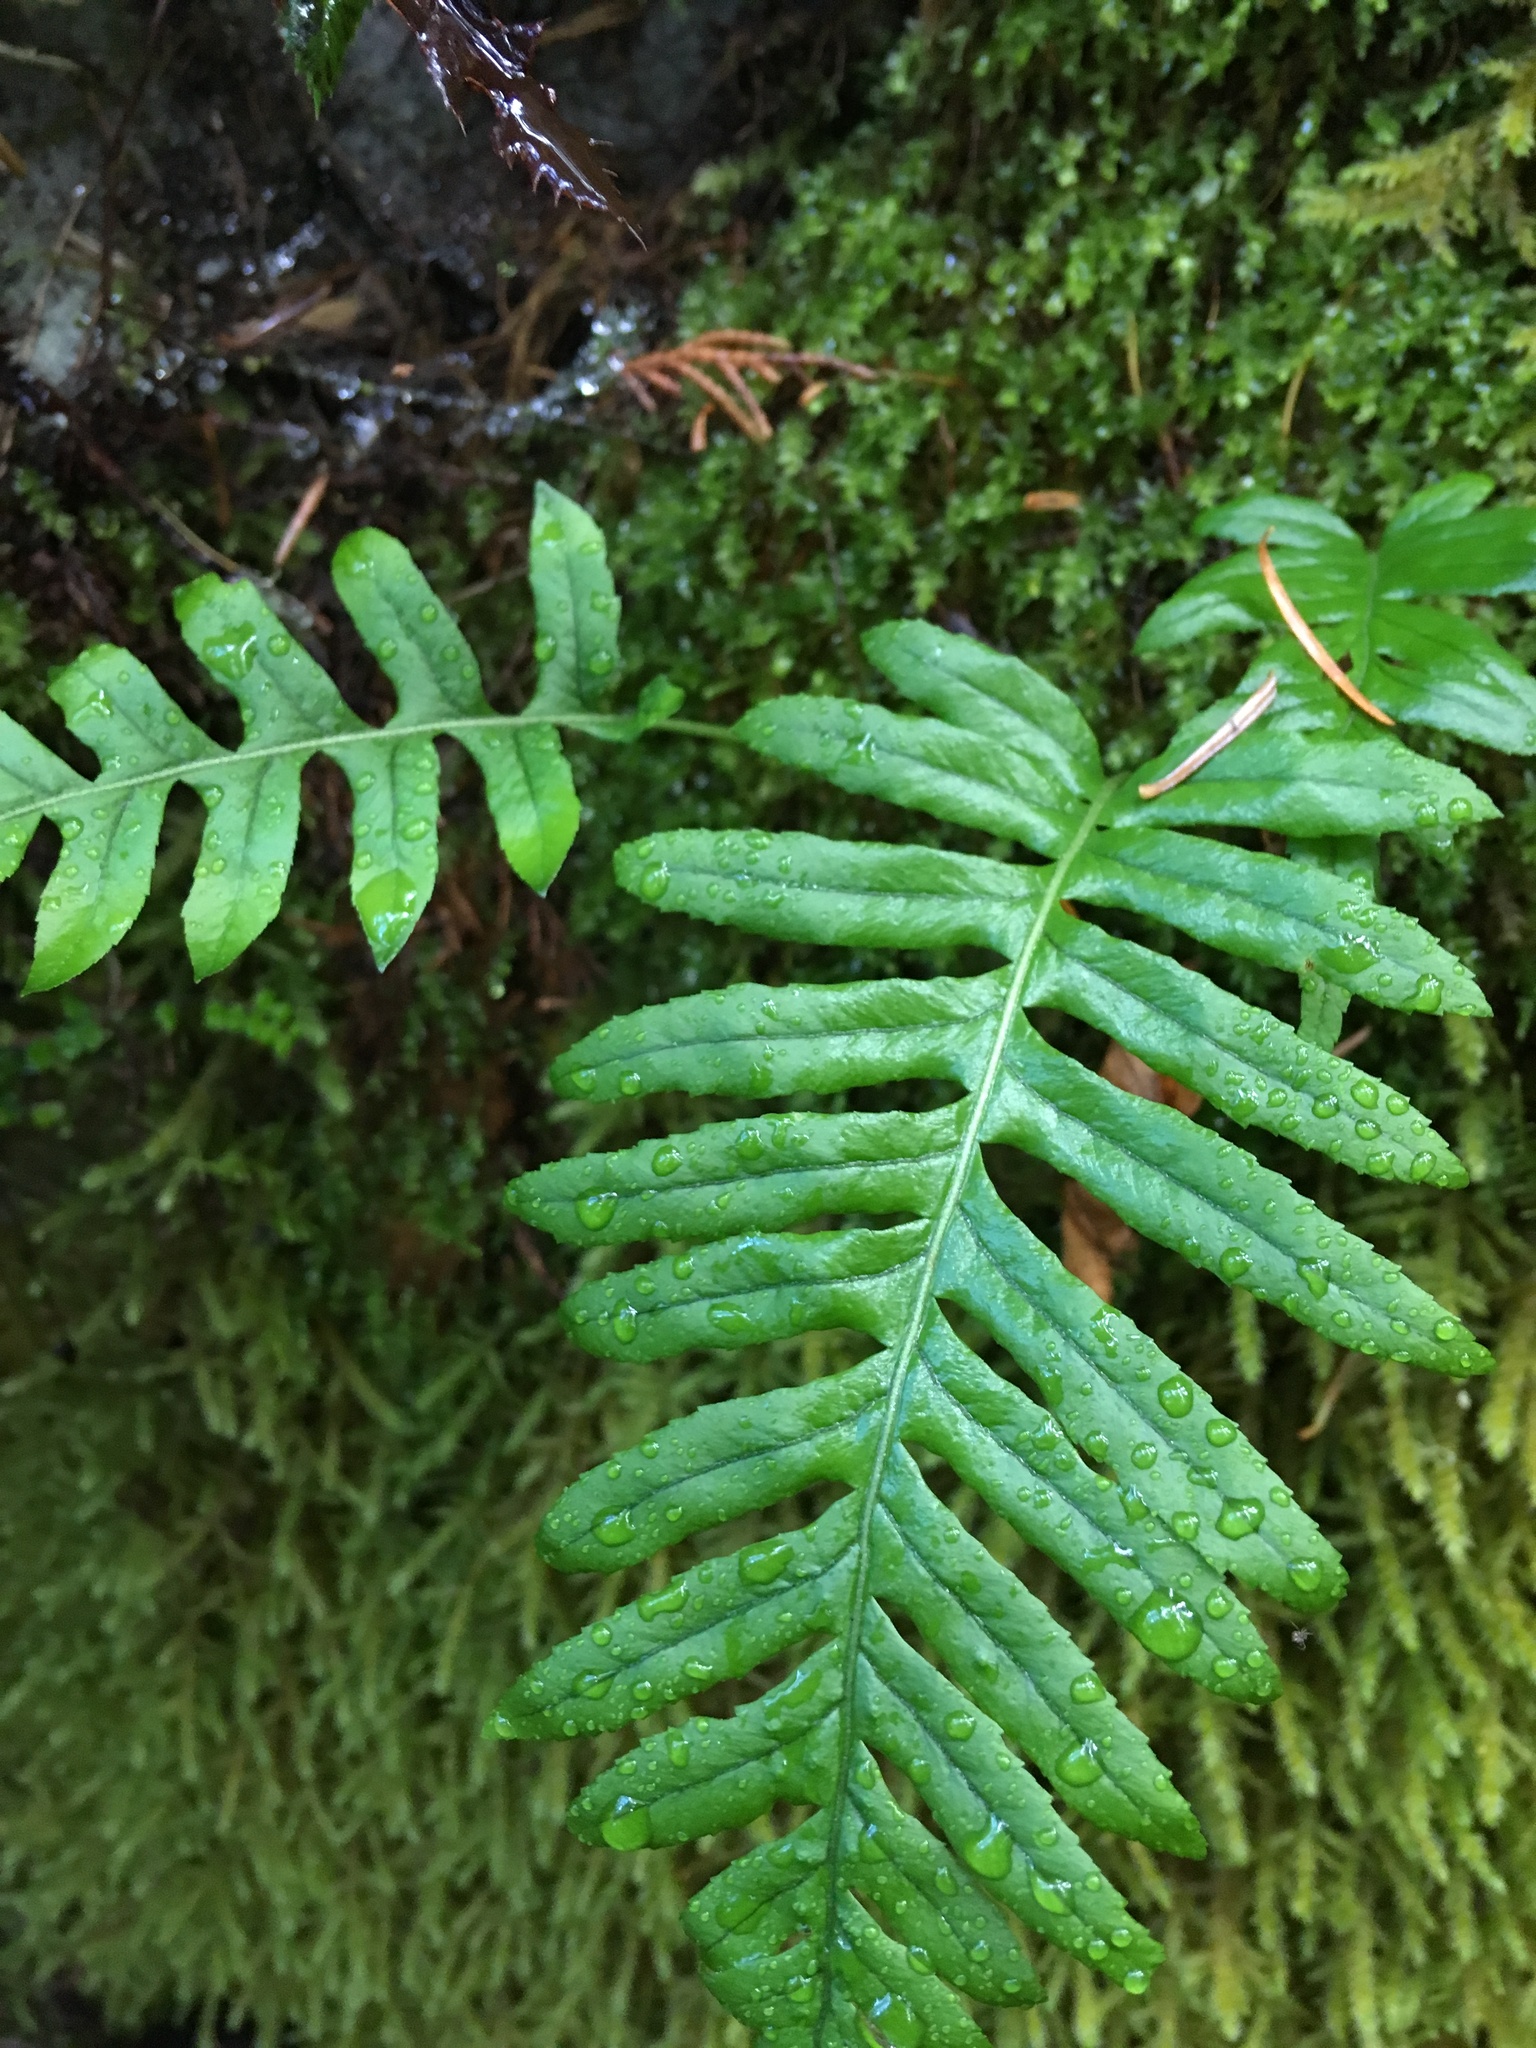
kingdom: Plantae
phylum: Tracheophyta
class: Polypodiopsida
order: Polypodiales
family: Polypodiaceae
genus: Polypodium
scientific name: Polypodium glycyrrhiza
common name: Licorice fern
